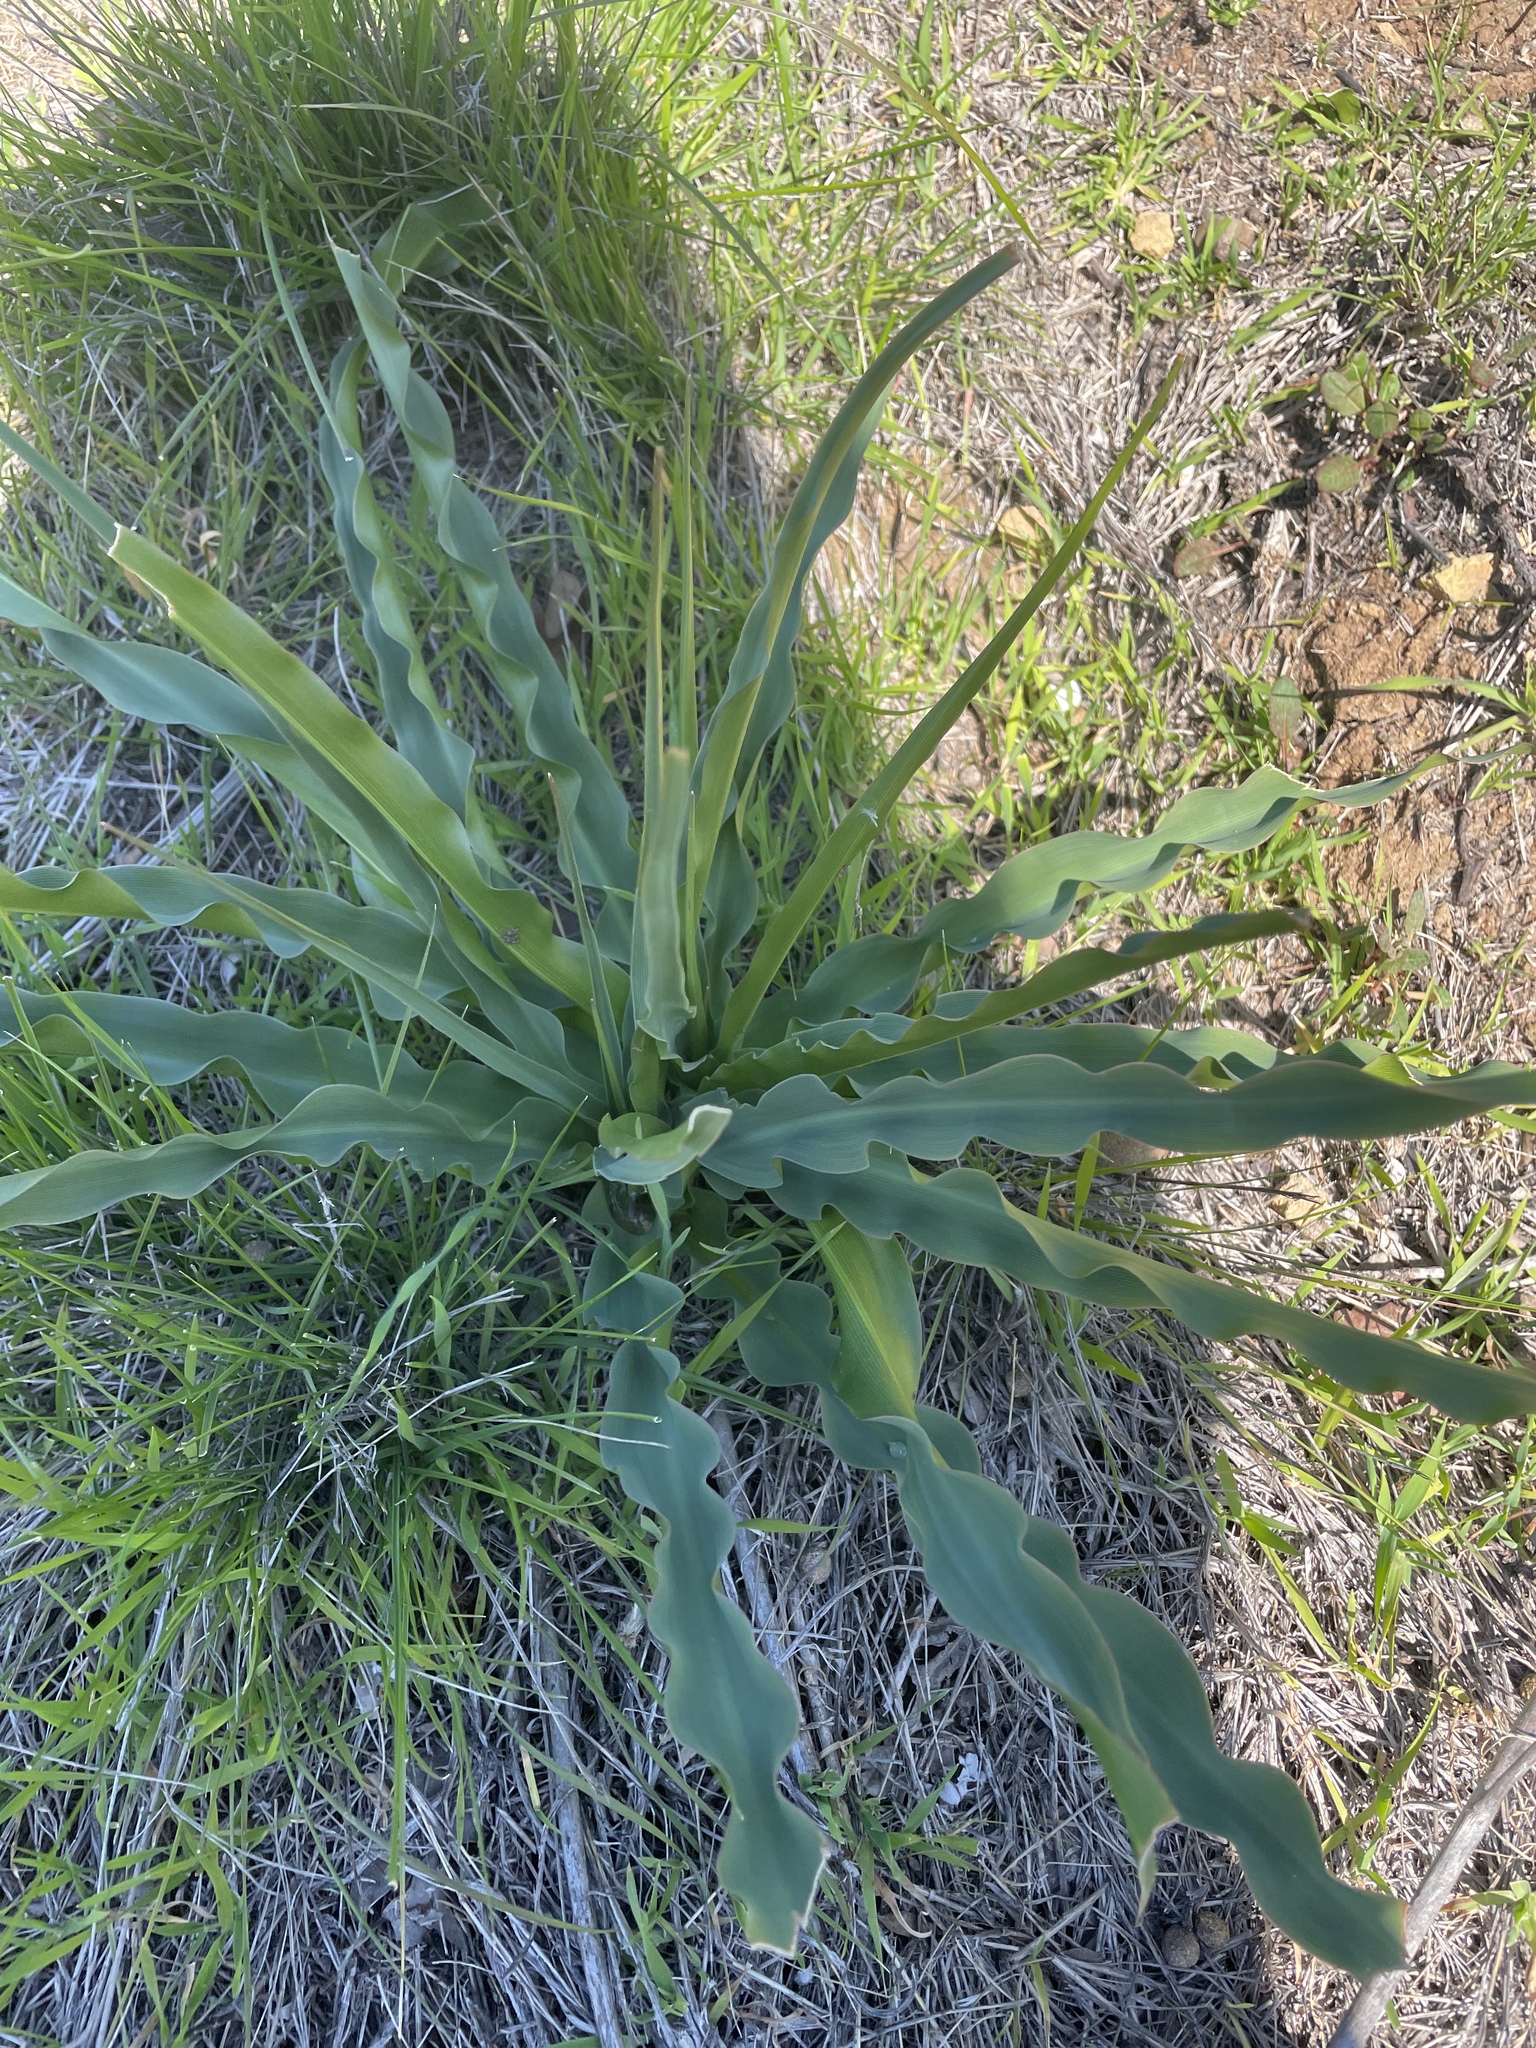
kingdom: Plantae
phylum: Tracheophyta
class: Liliopsida
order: Asparagales
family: Asparagaceae
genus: Chlorogalum
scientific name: Chlorogalum pomeridianum
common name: Amole
